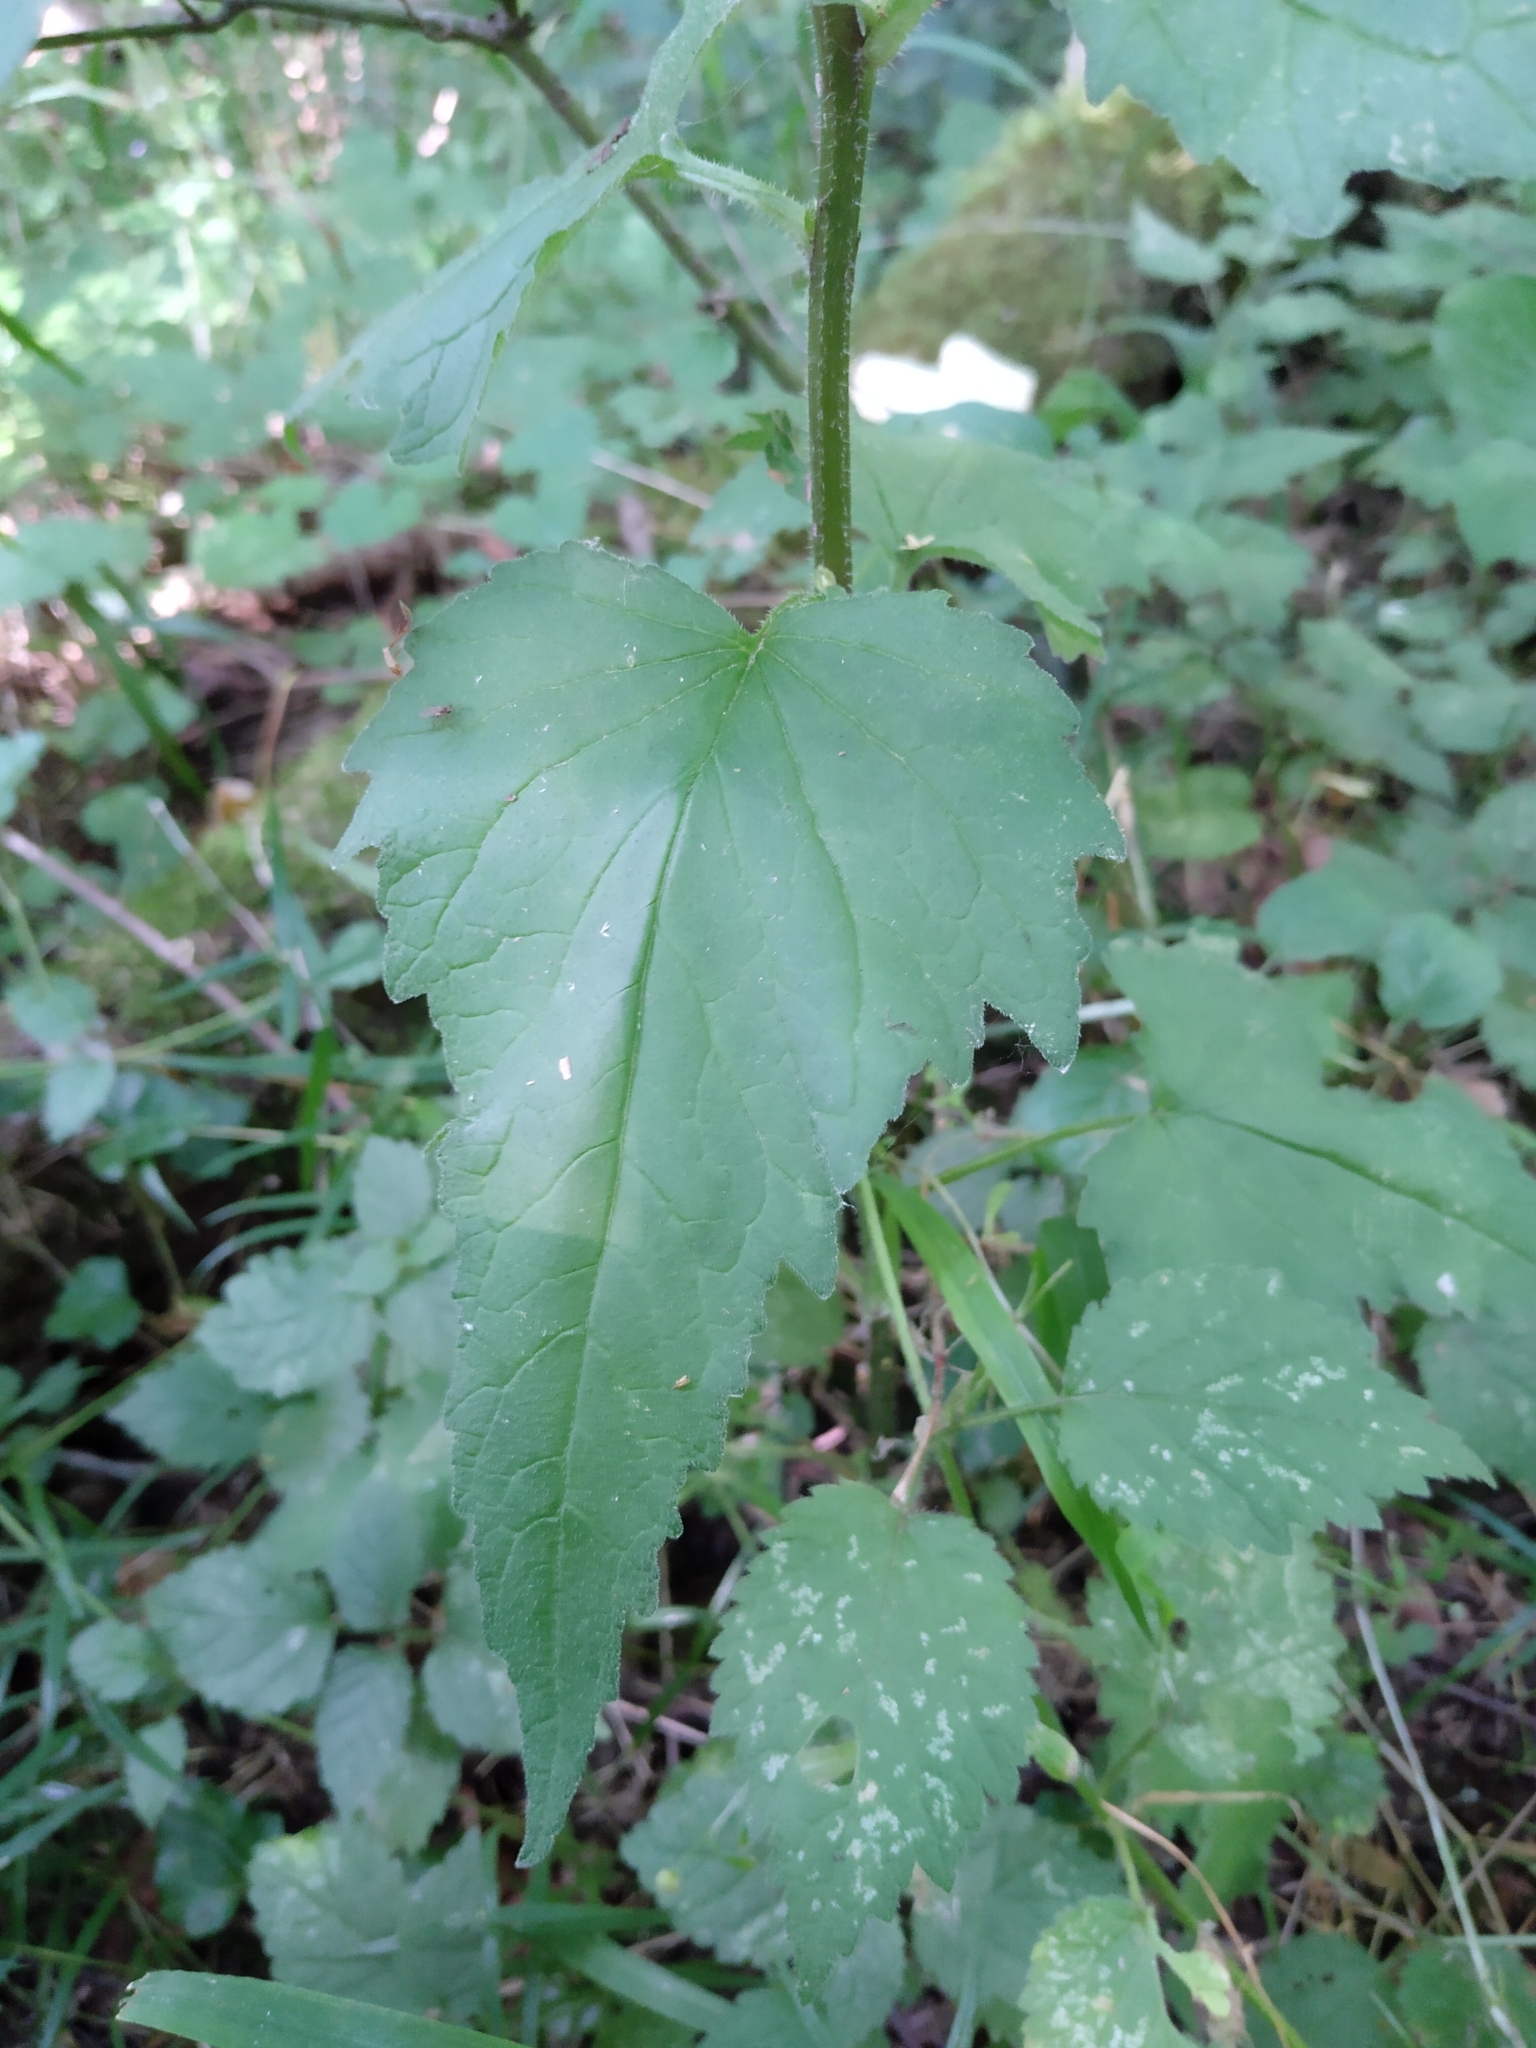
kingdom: Plantae
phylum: Tracheophyta
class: Magnoliopsida
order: Asterales
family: Campanulaceae
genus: Campanula
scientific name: Campanula trachelium
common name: Nettle-leaved bellflower
